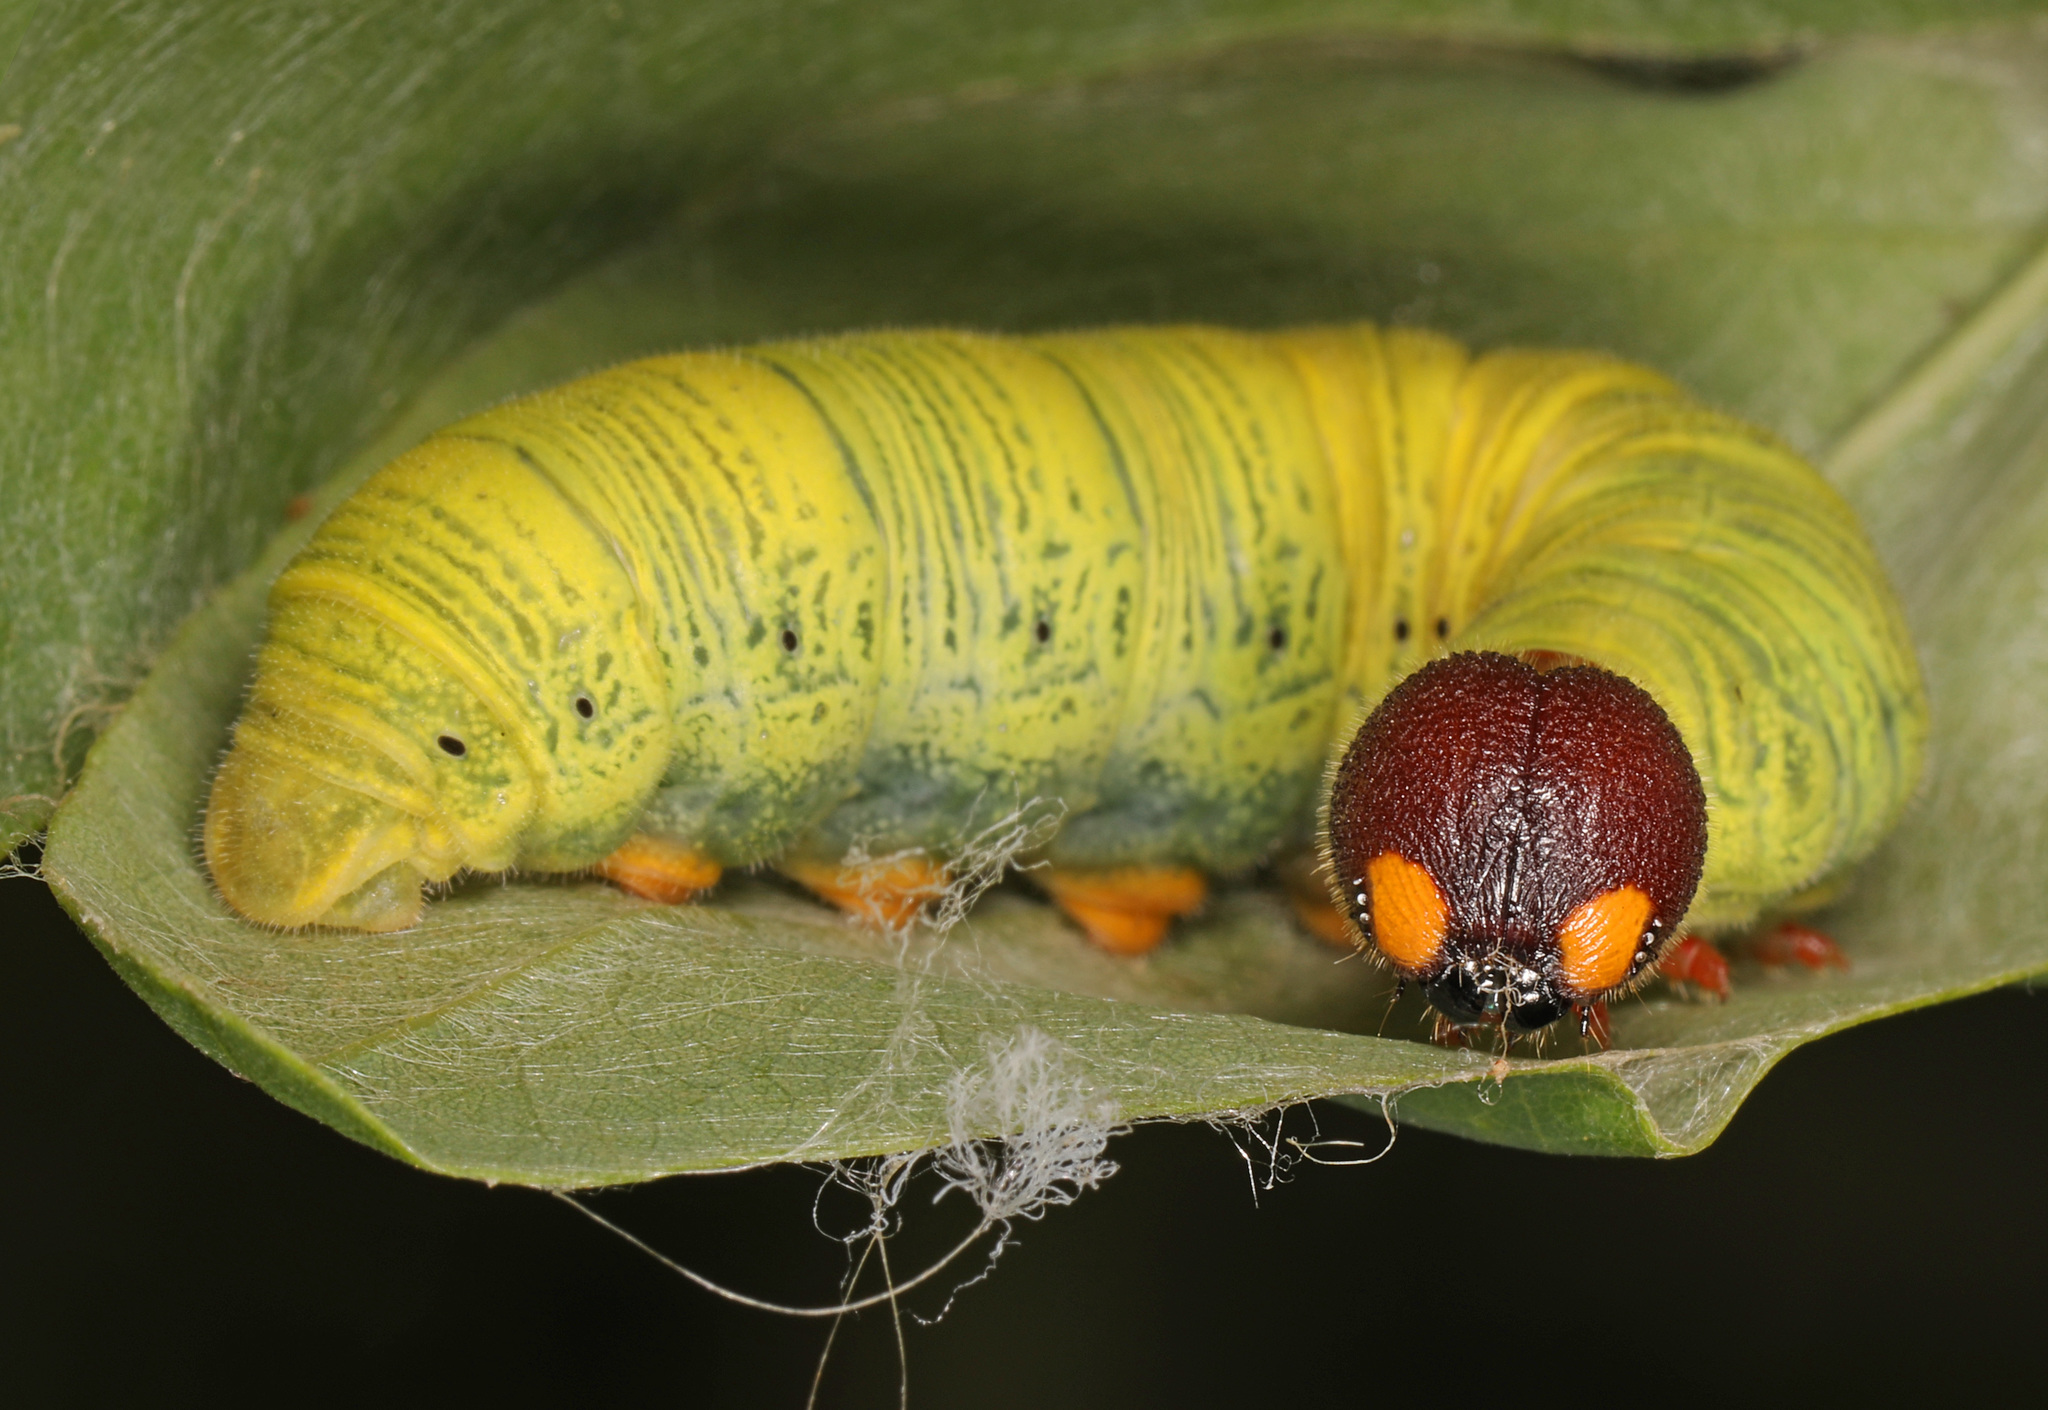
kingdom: Animalia
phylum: Arthropoda
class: Insecta
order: Lepidoptera
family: Hesperiidae
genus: Epargyreus
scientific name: Epargyreus clarus
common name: Silver-spotted skipper
